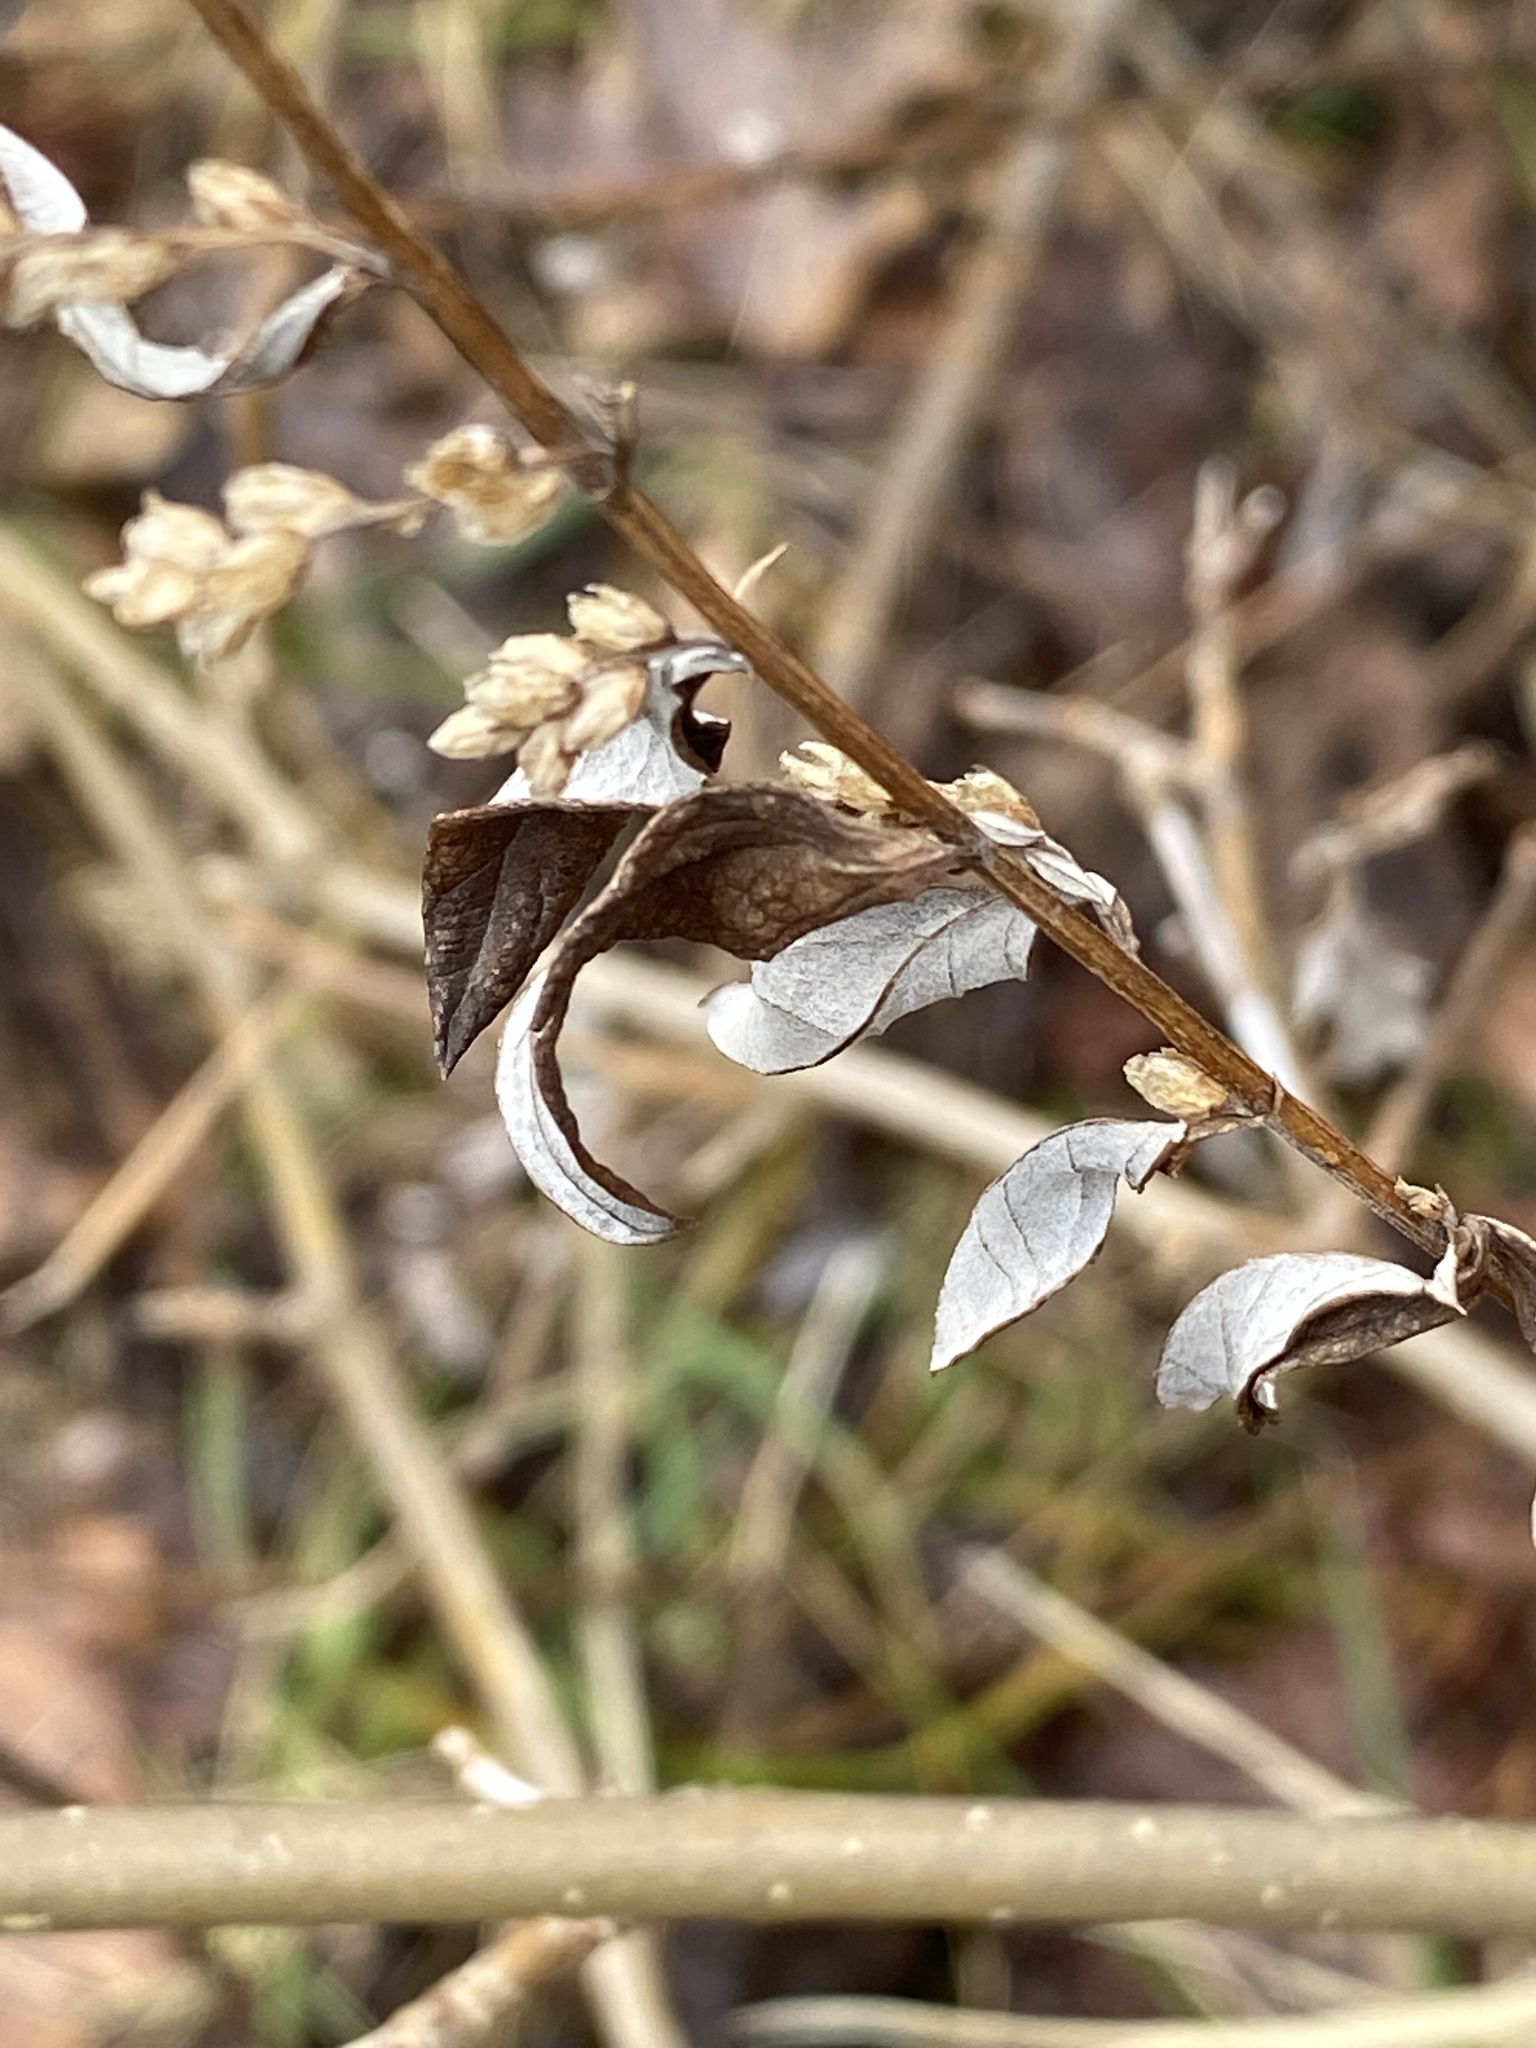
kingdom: Plantae
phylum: Tracheophyta
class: Magnoliopsida
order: Asterales
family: Asteraceae
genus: Artemisia
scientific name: Artemisia vulgaris
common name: Mugwort
